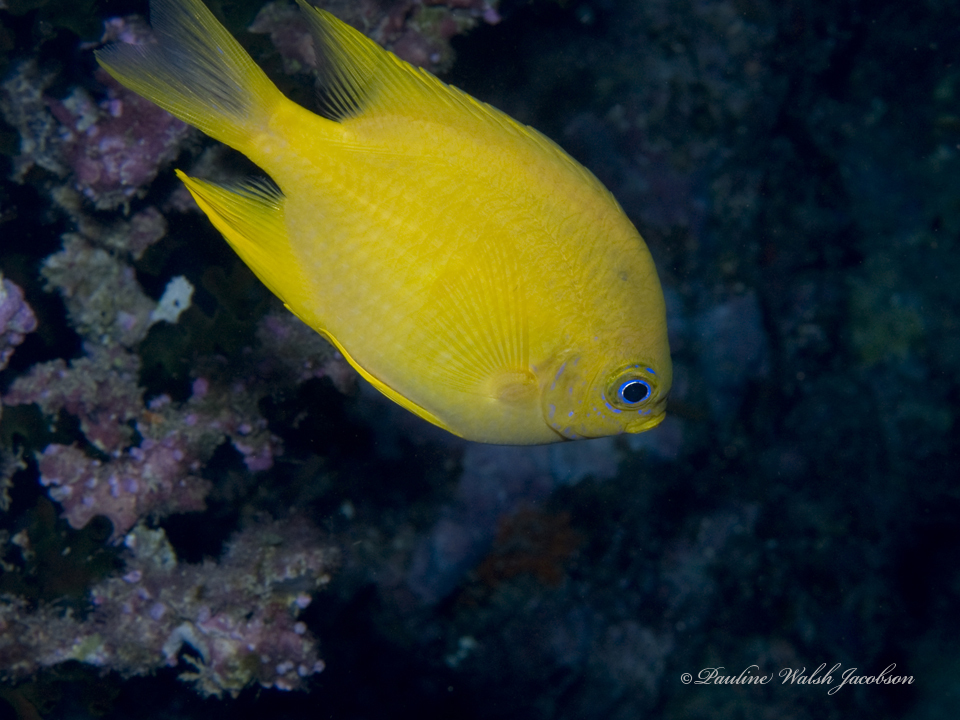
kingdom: Animalia
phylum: Chordata
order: Perciformes
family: Pomacentridae
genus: Amblyglyphidodon
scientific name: Amblyglyphidodon aureus
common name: Golden damsel
